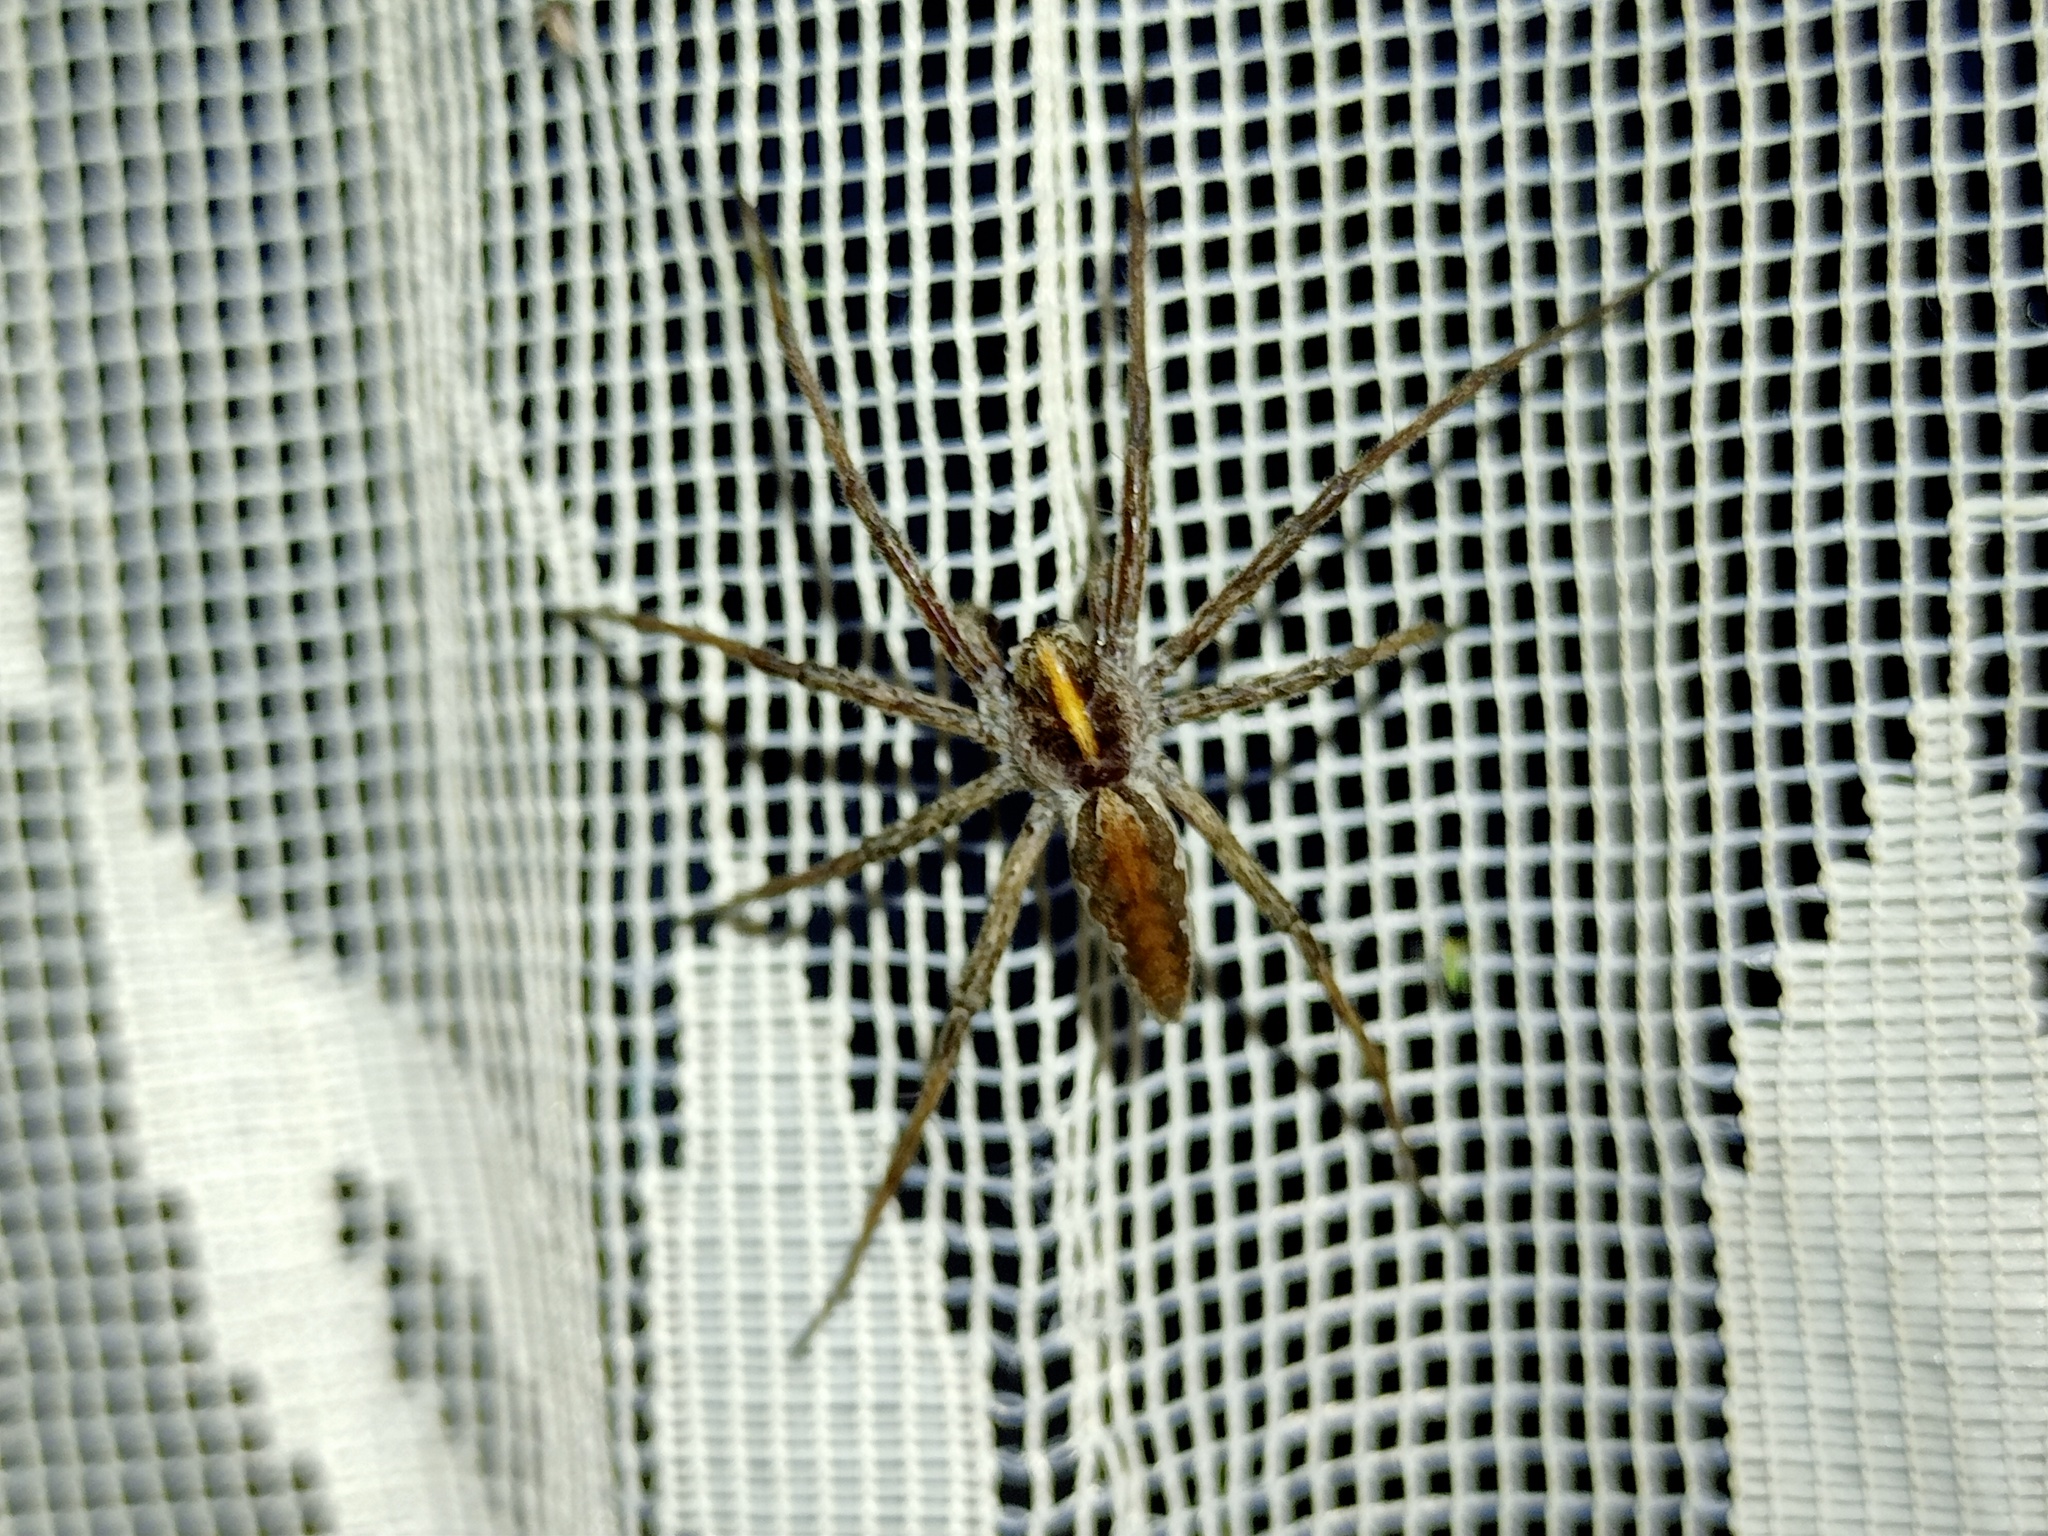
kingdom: Animalia
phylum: Arthropoda
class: Arachnida
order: Araneae
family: Pisauridae
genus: Pisaura
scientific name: Pisaura mirabilis
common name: Tent spider
